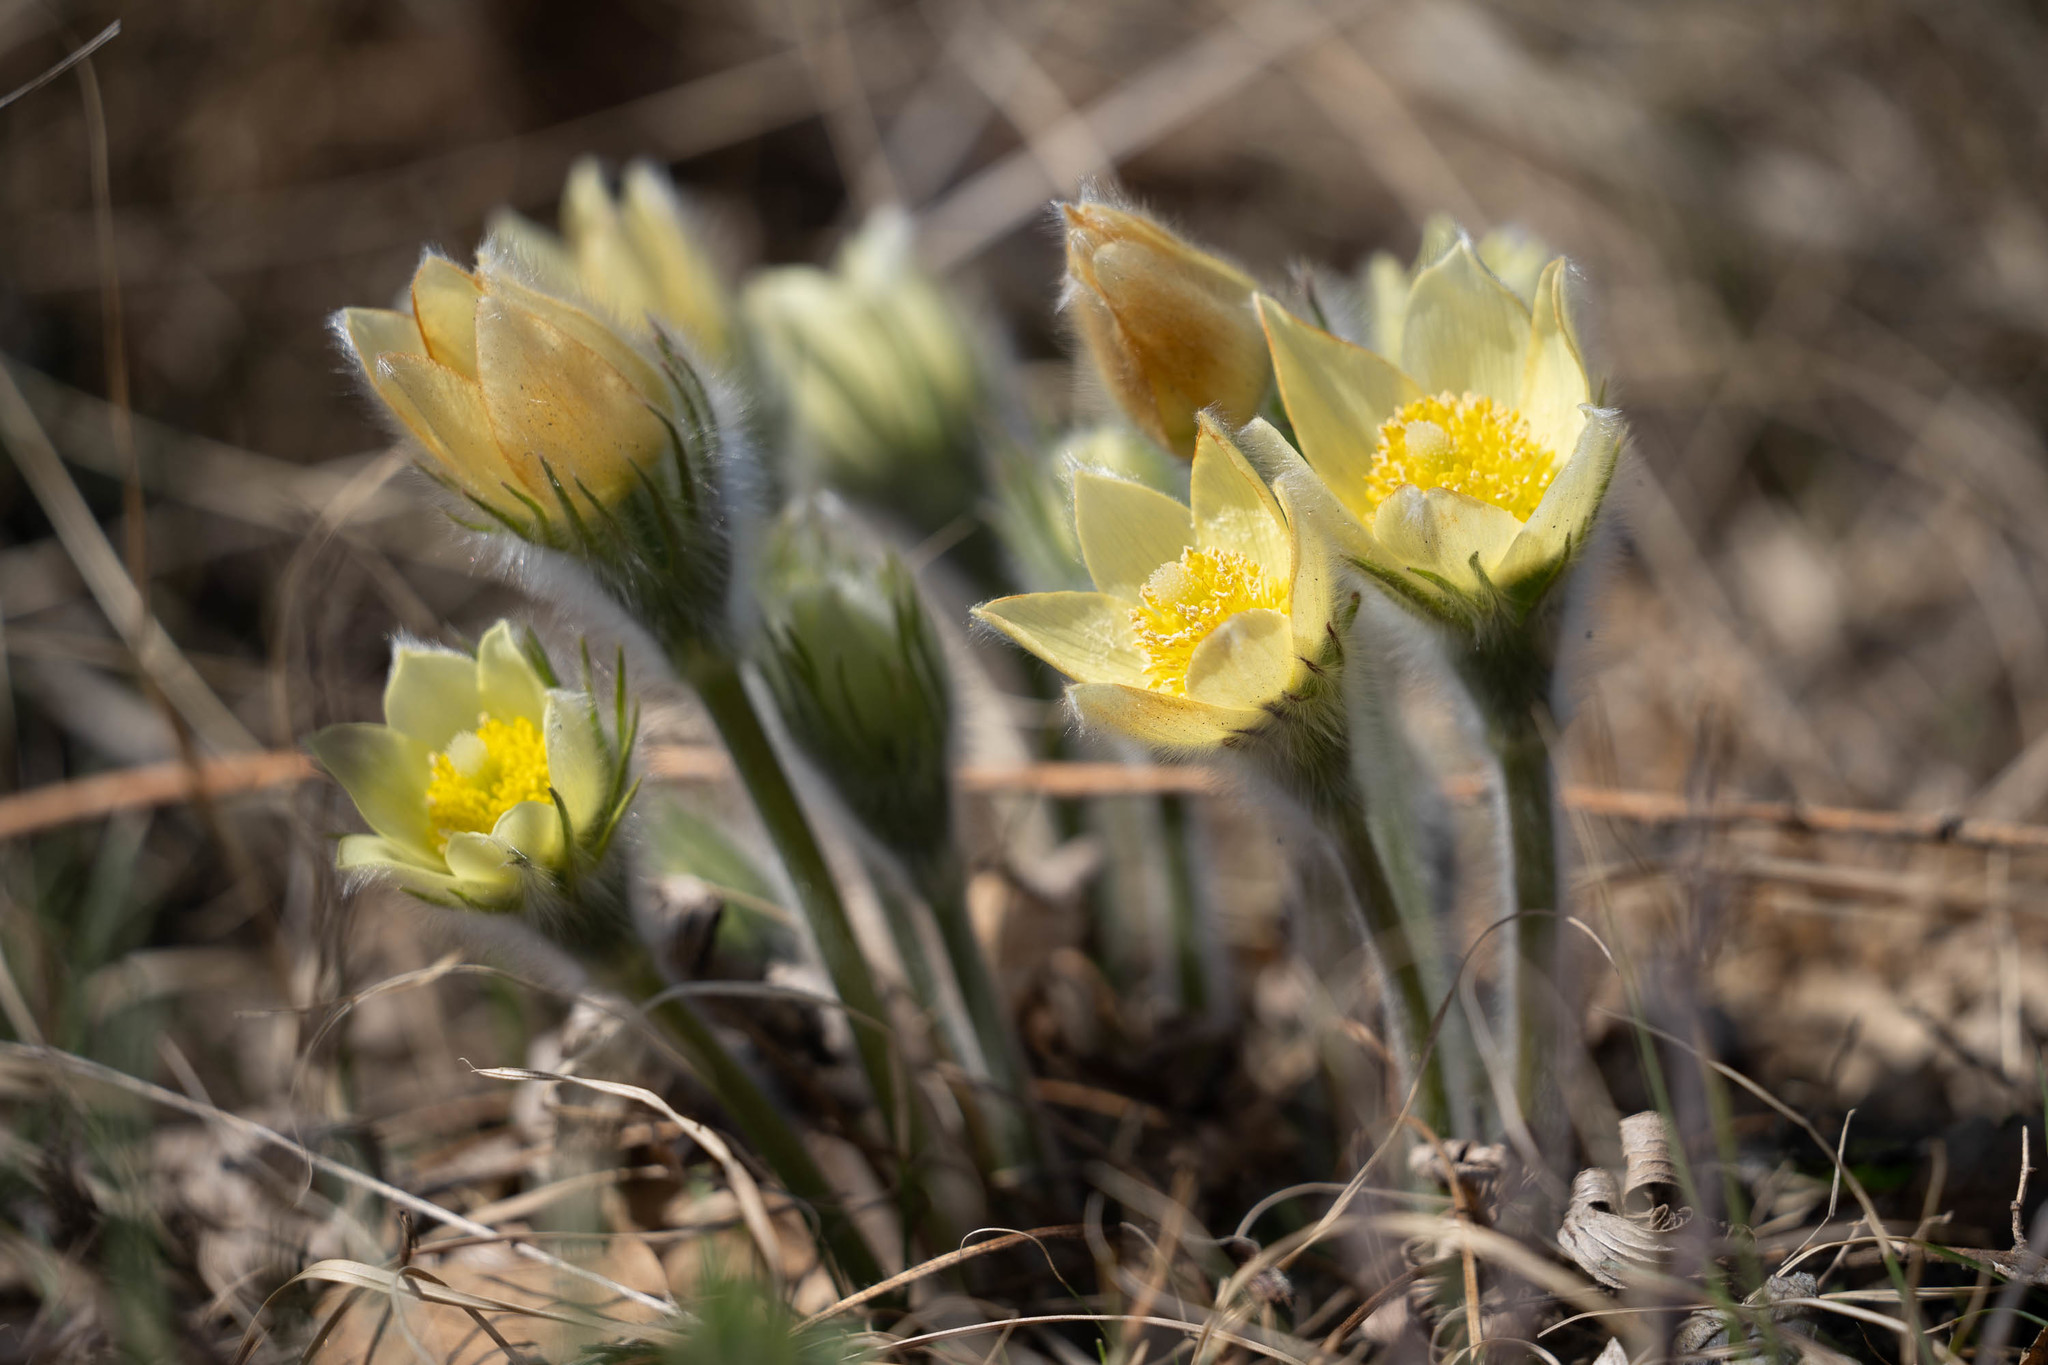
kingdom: Plantae
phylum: Tracheophyta
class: Magnoliopsida
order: Ranunculales
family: Ranunculaceae
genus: Pulsatilla
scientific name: Pulsatilla patens
